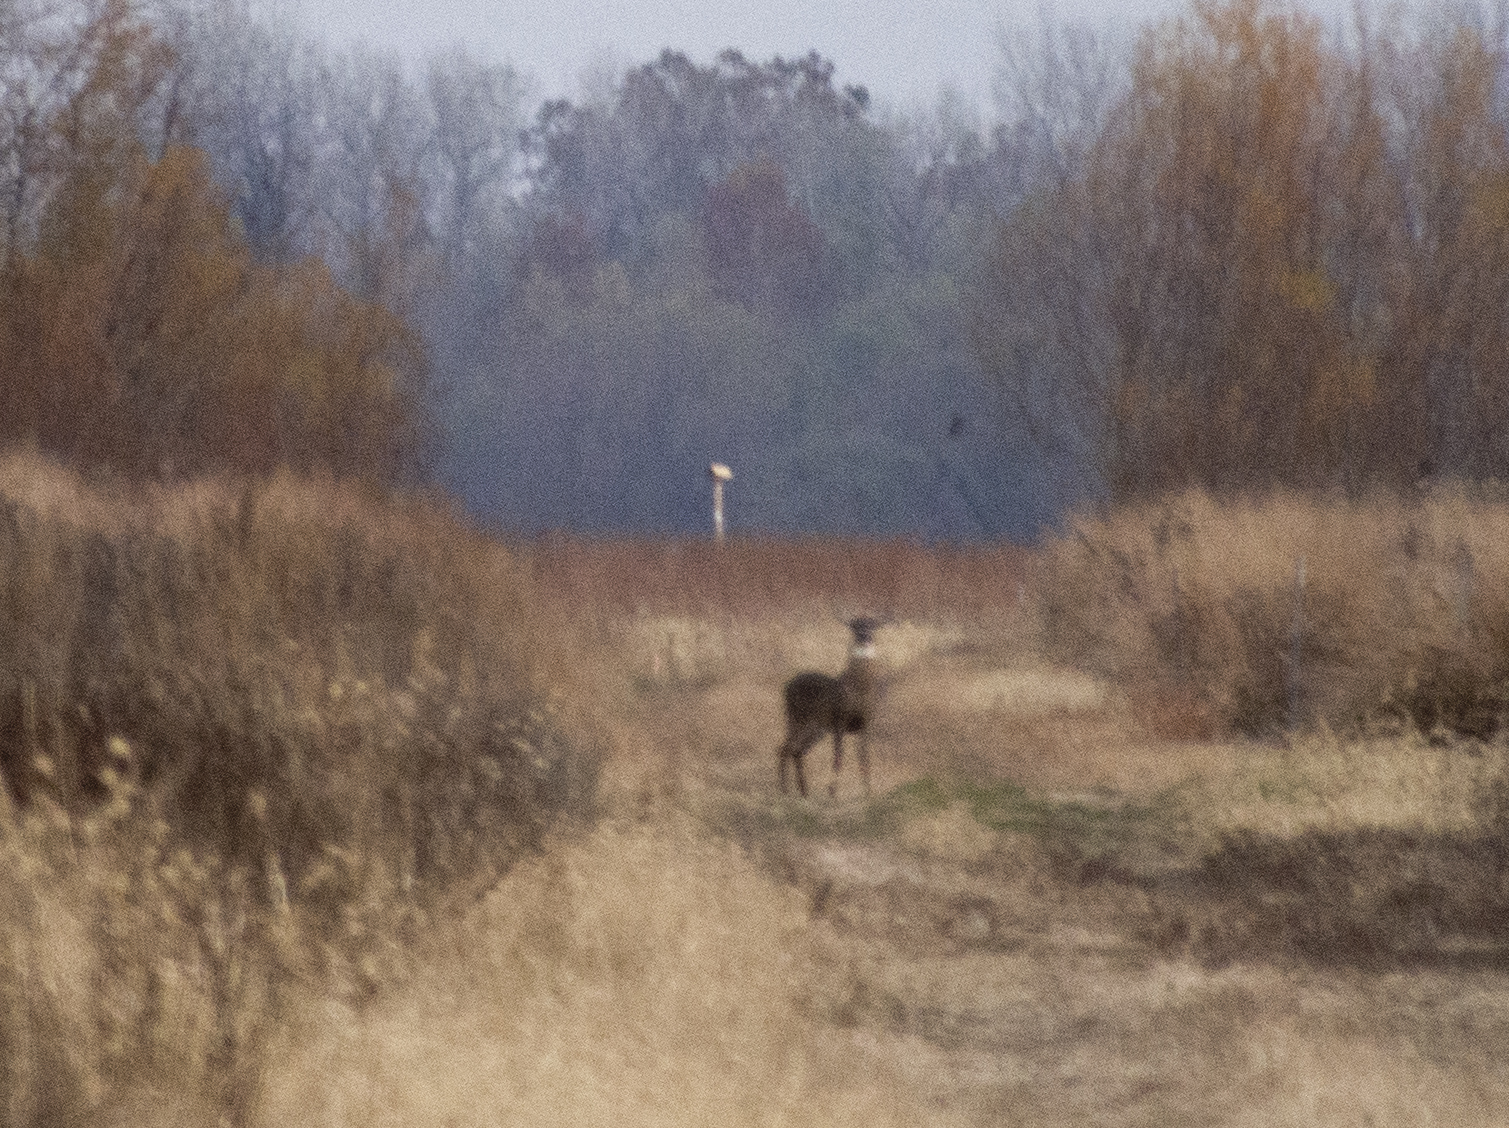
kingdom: Animalia
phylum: Chordata
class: Mammalia
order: Artiodactyla
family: Cervidae
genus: Odocoileus
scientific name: Odocoileus virginianus
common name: White-tailed deer
